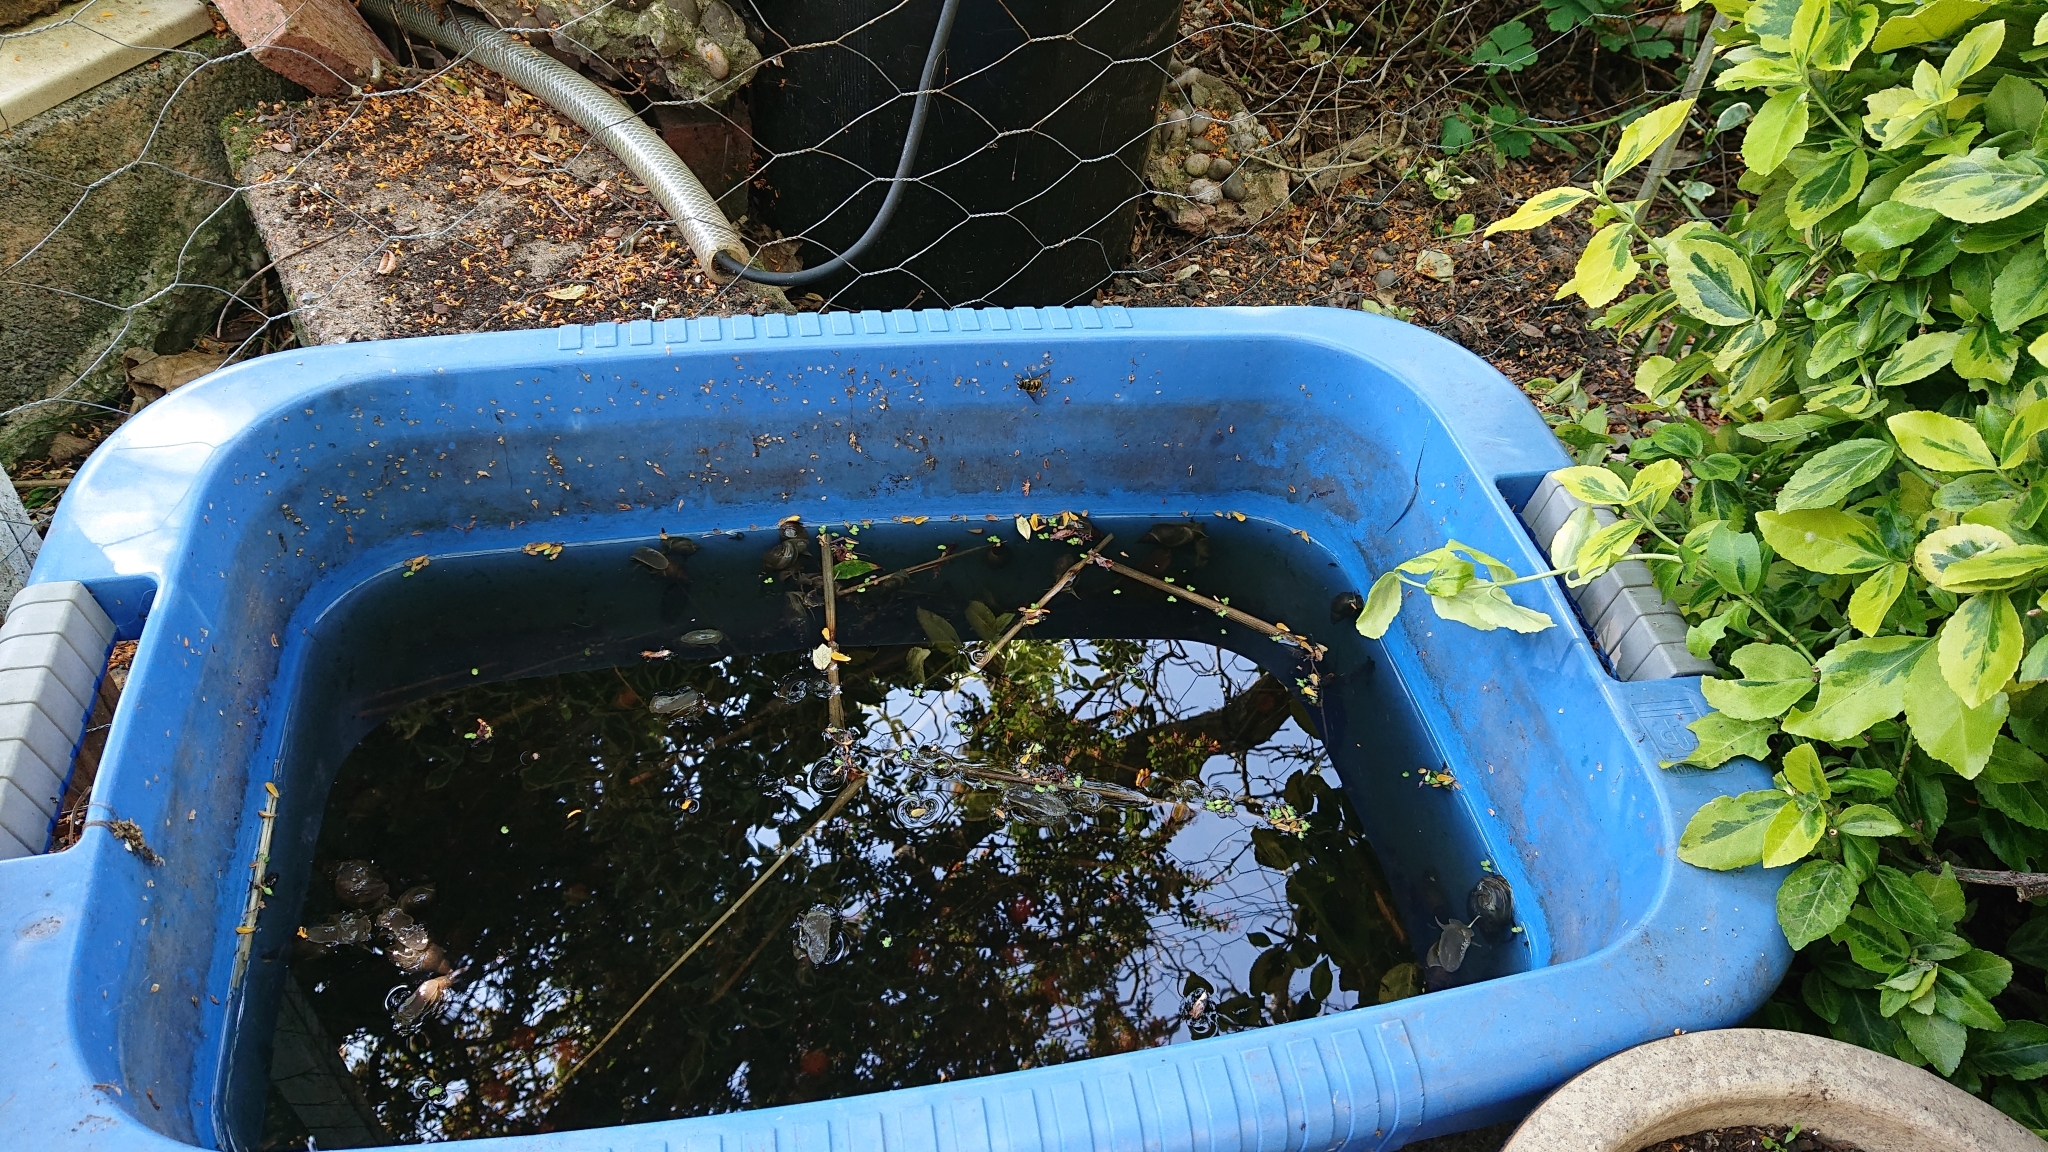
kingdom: Animalia
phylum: Arthropoda
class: Insecta
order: Diptera
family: Syrphidae
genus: Myathropa
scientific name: Myathropa florea
